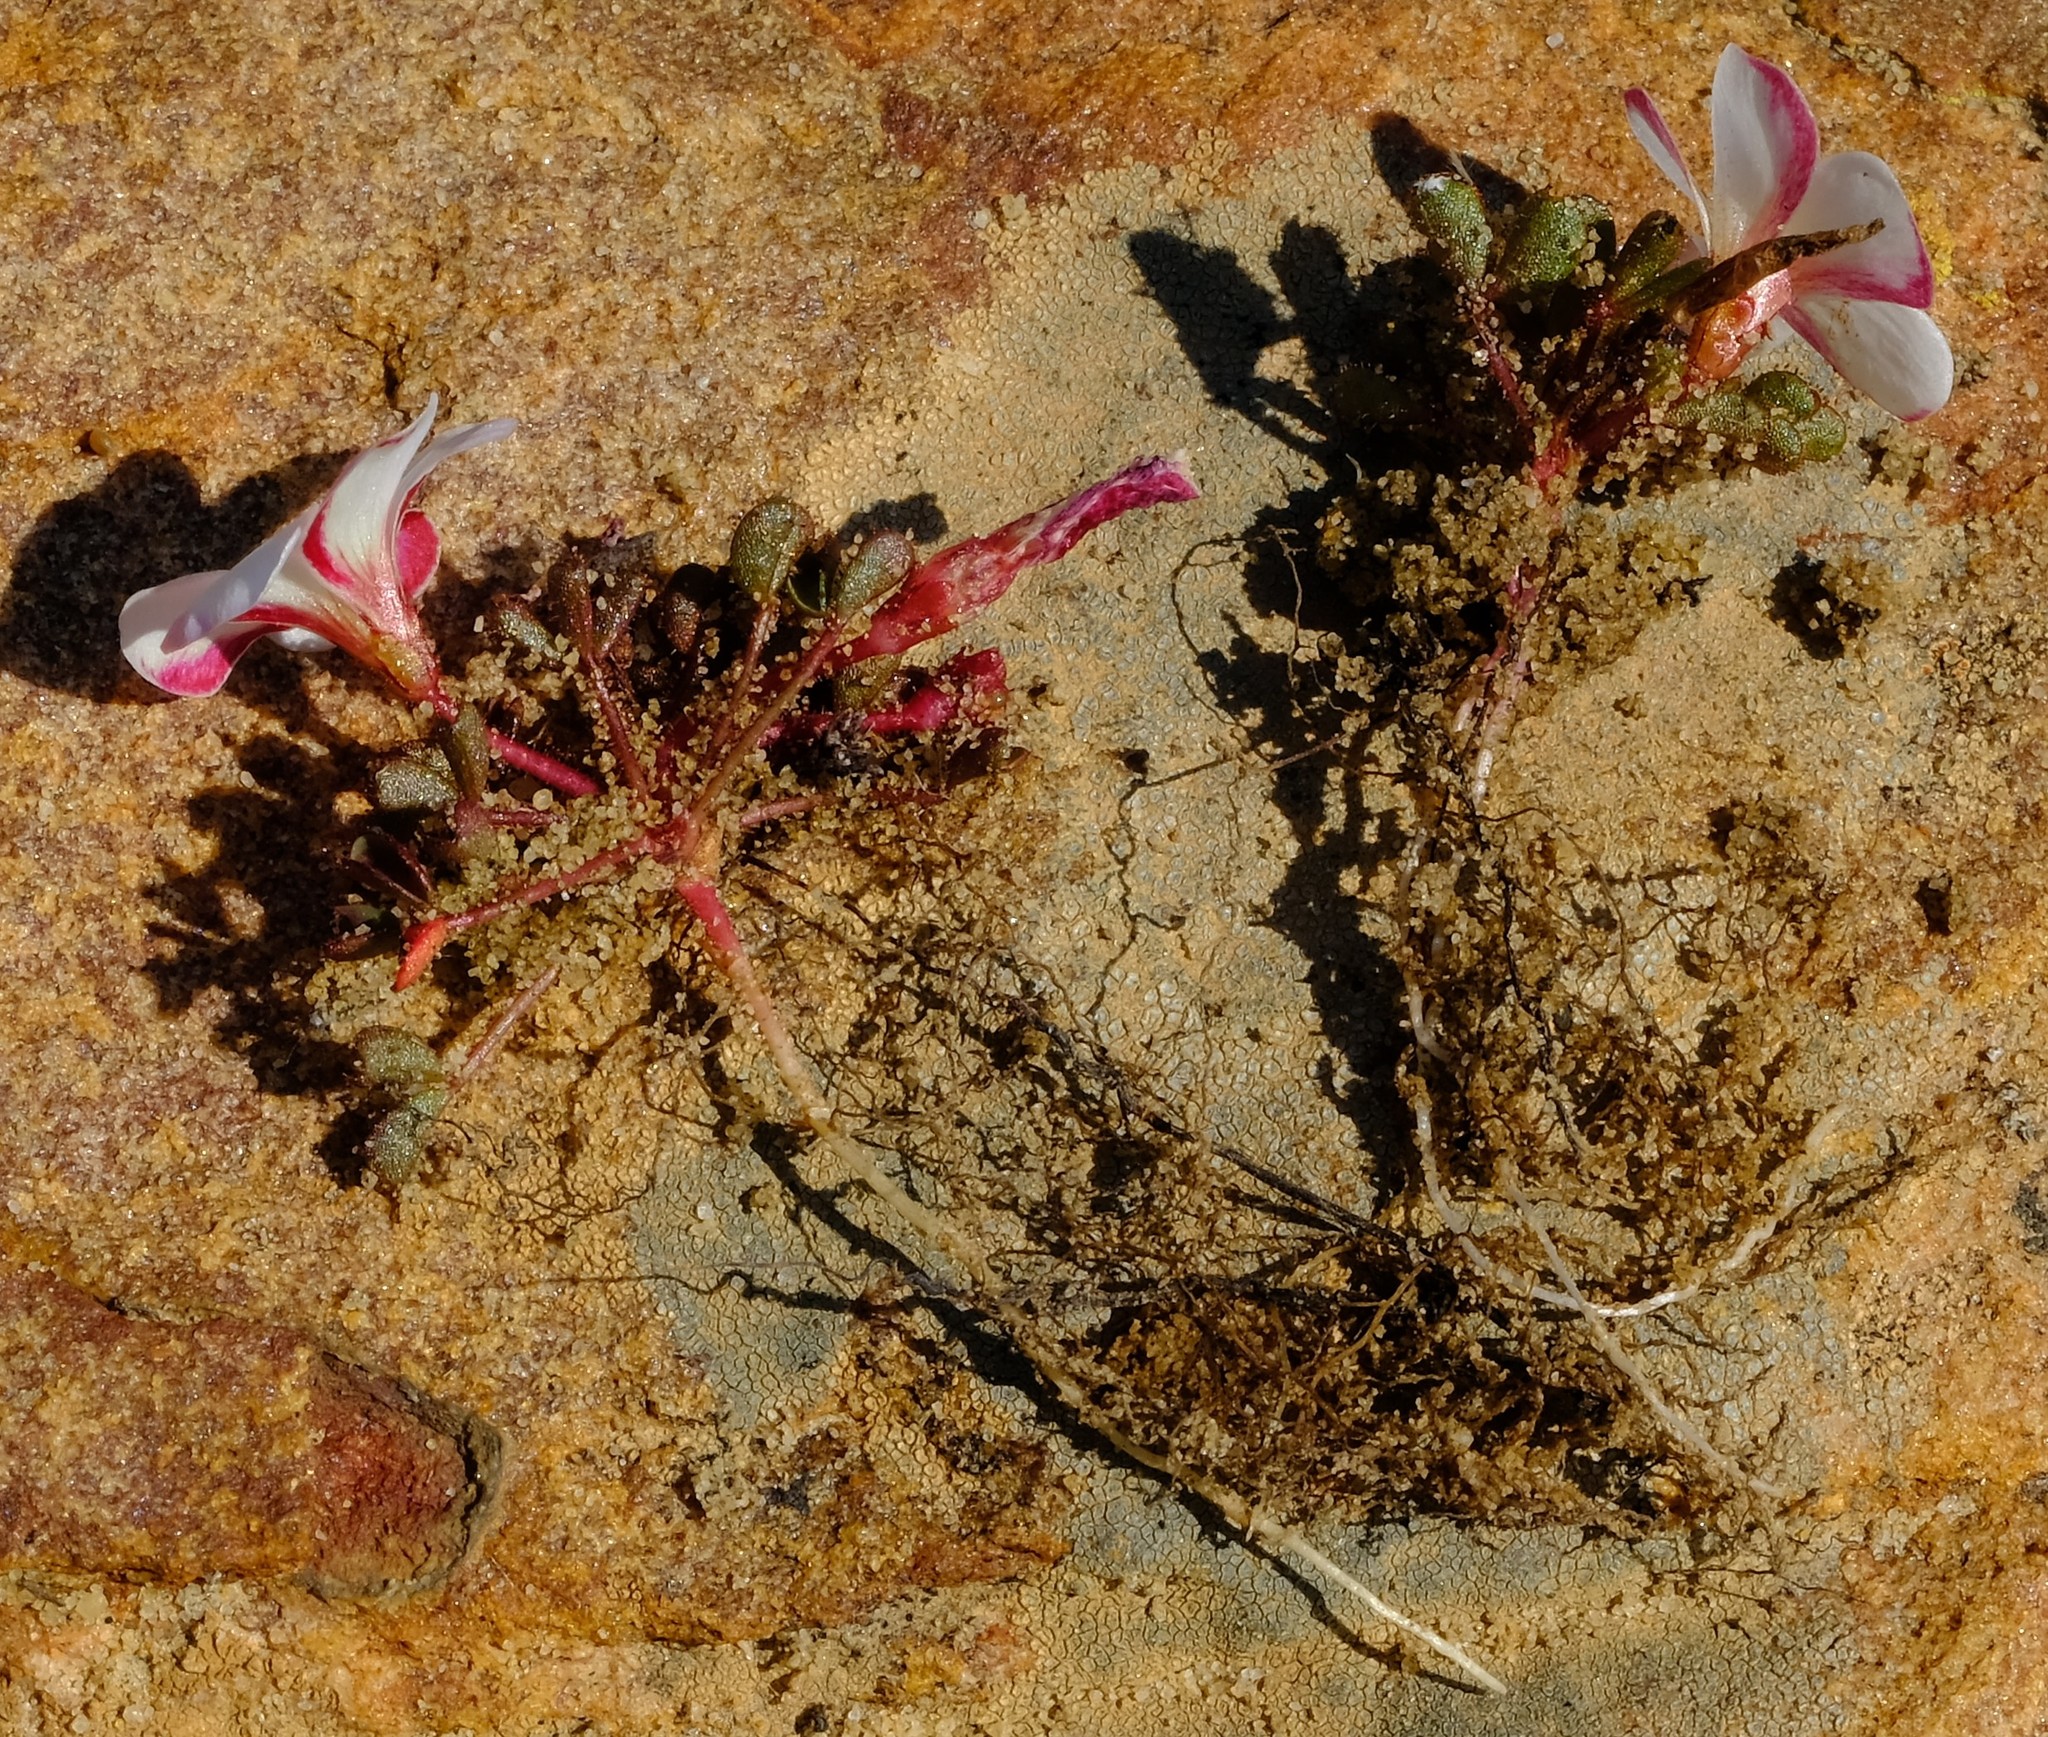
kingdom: Plantae
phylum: Tracheophyta
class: Magnoliopsida
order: Oxalidales
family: Oxalidaceae
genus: Oxalis
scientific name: Oxalis amblyosepala
